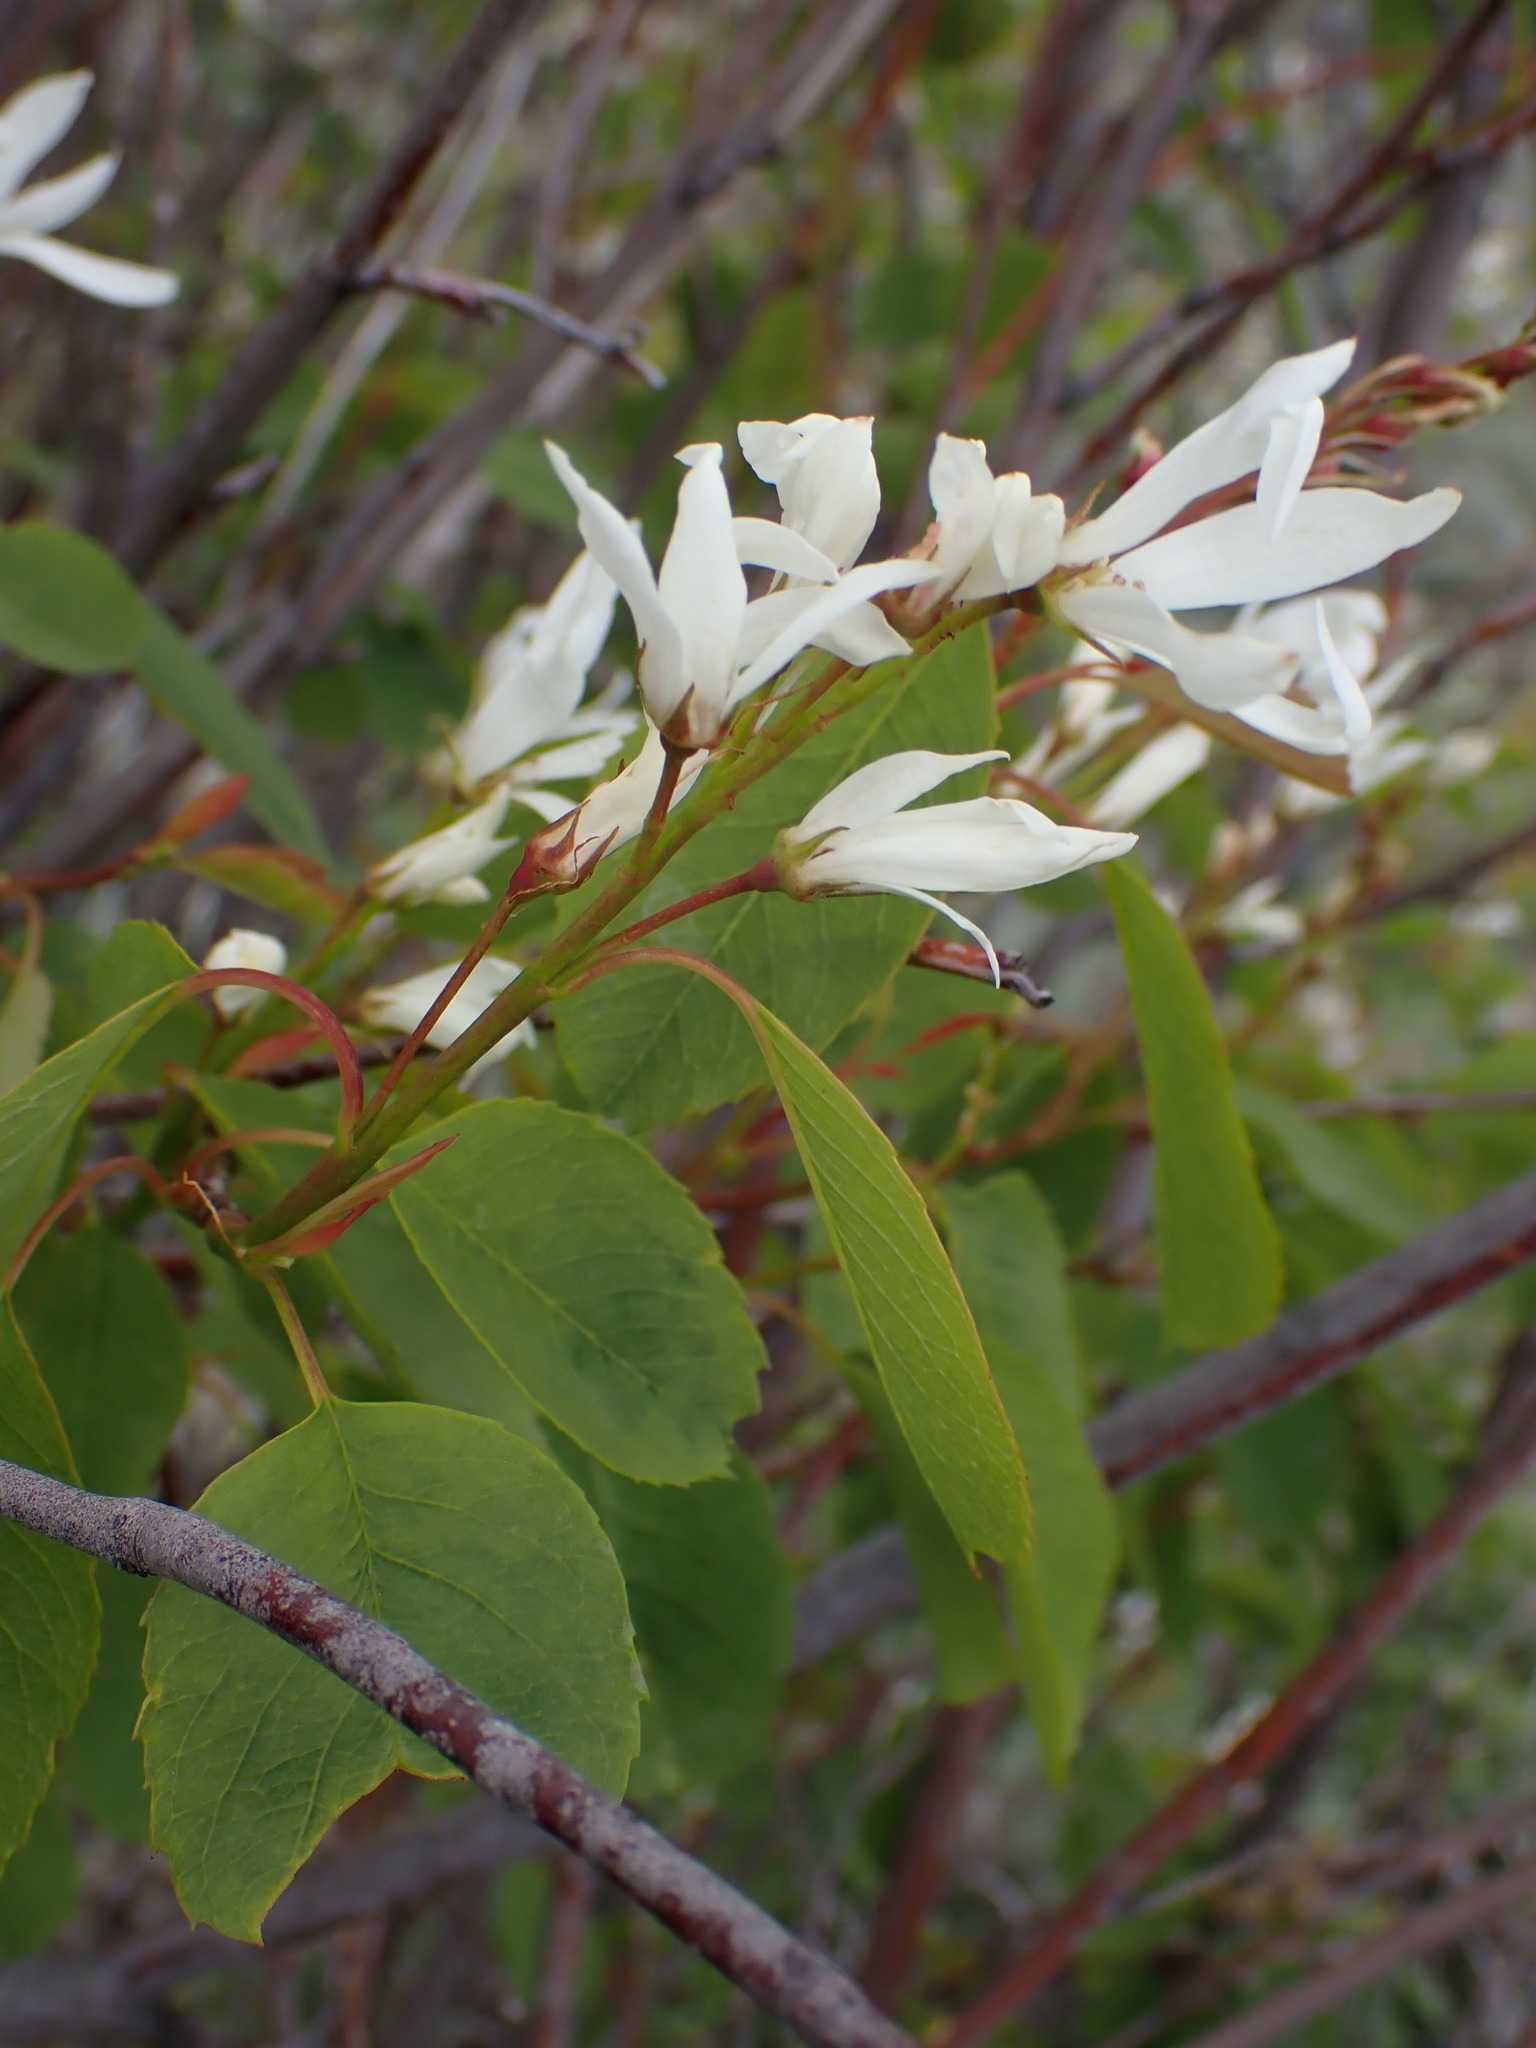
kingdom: Plantae
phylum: Tracheophyta
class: Magnoliopsida
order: Rosales
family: Rosaceae
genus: Amelanchier
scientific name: Amelanchier alnifolia
